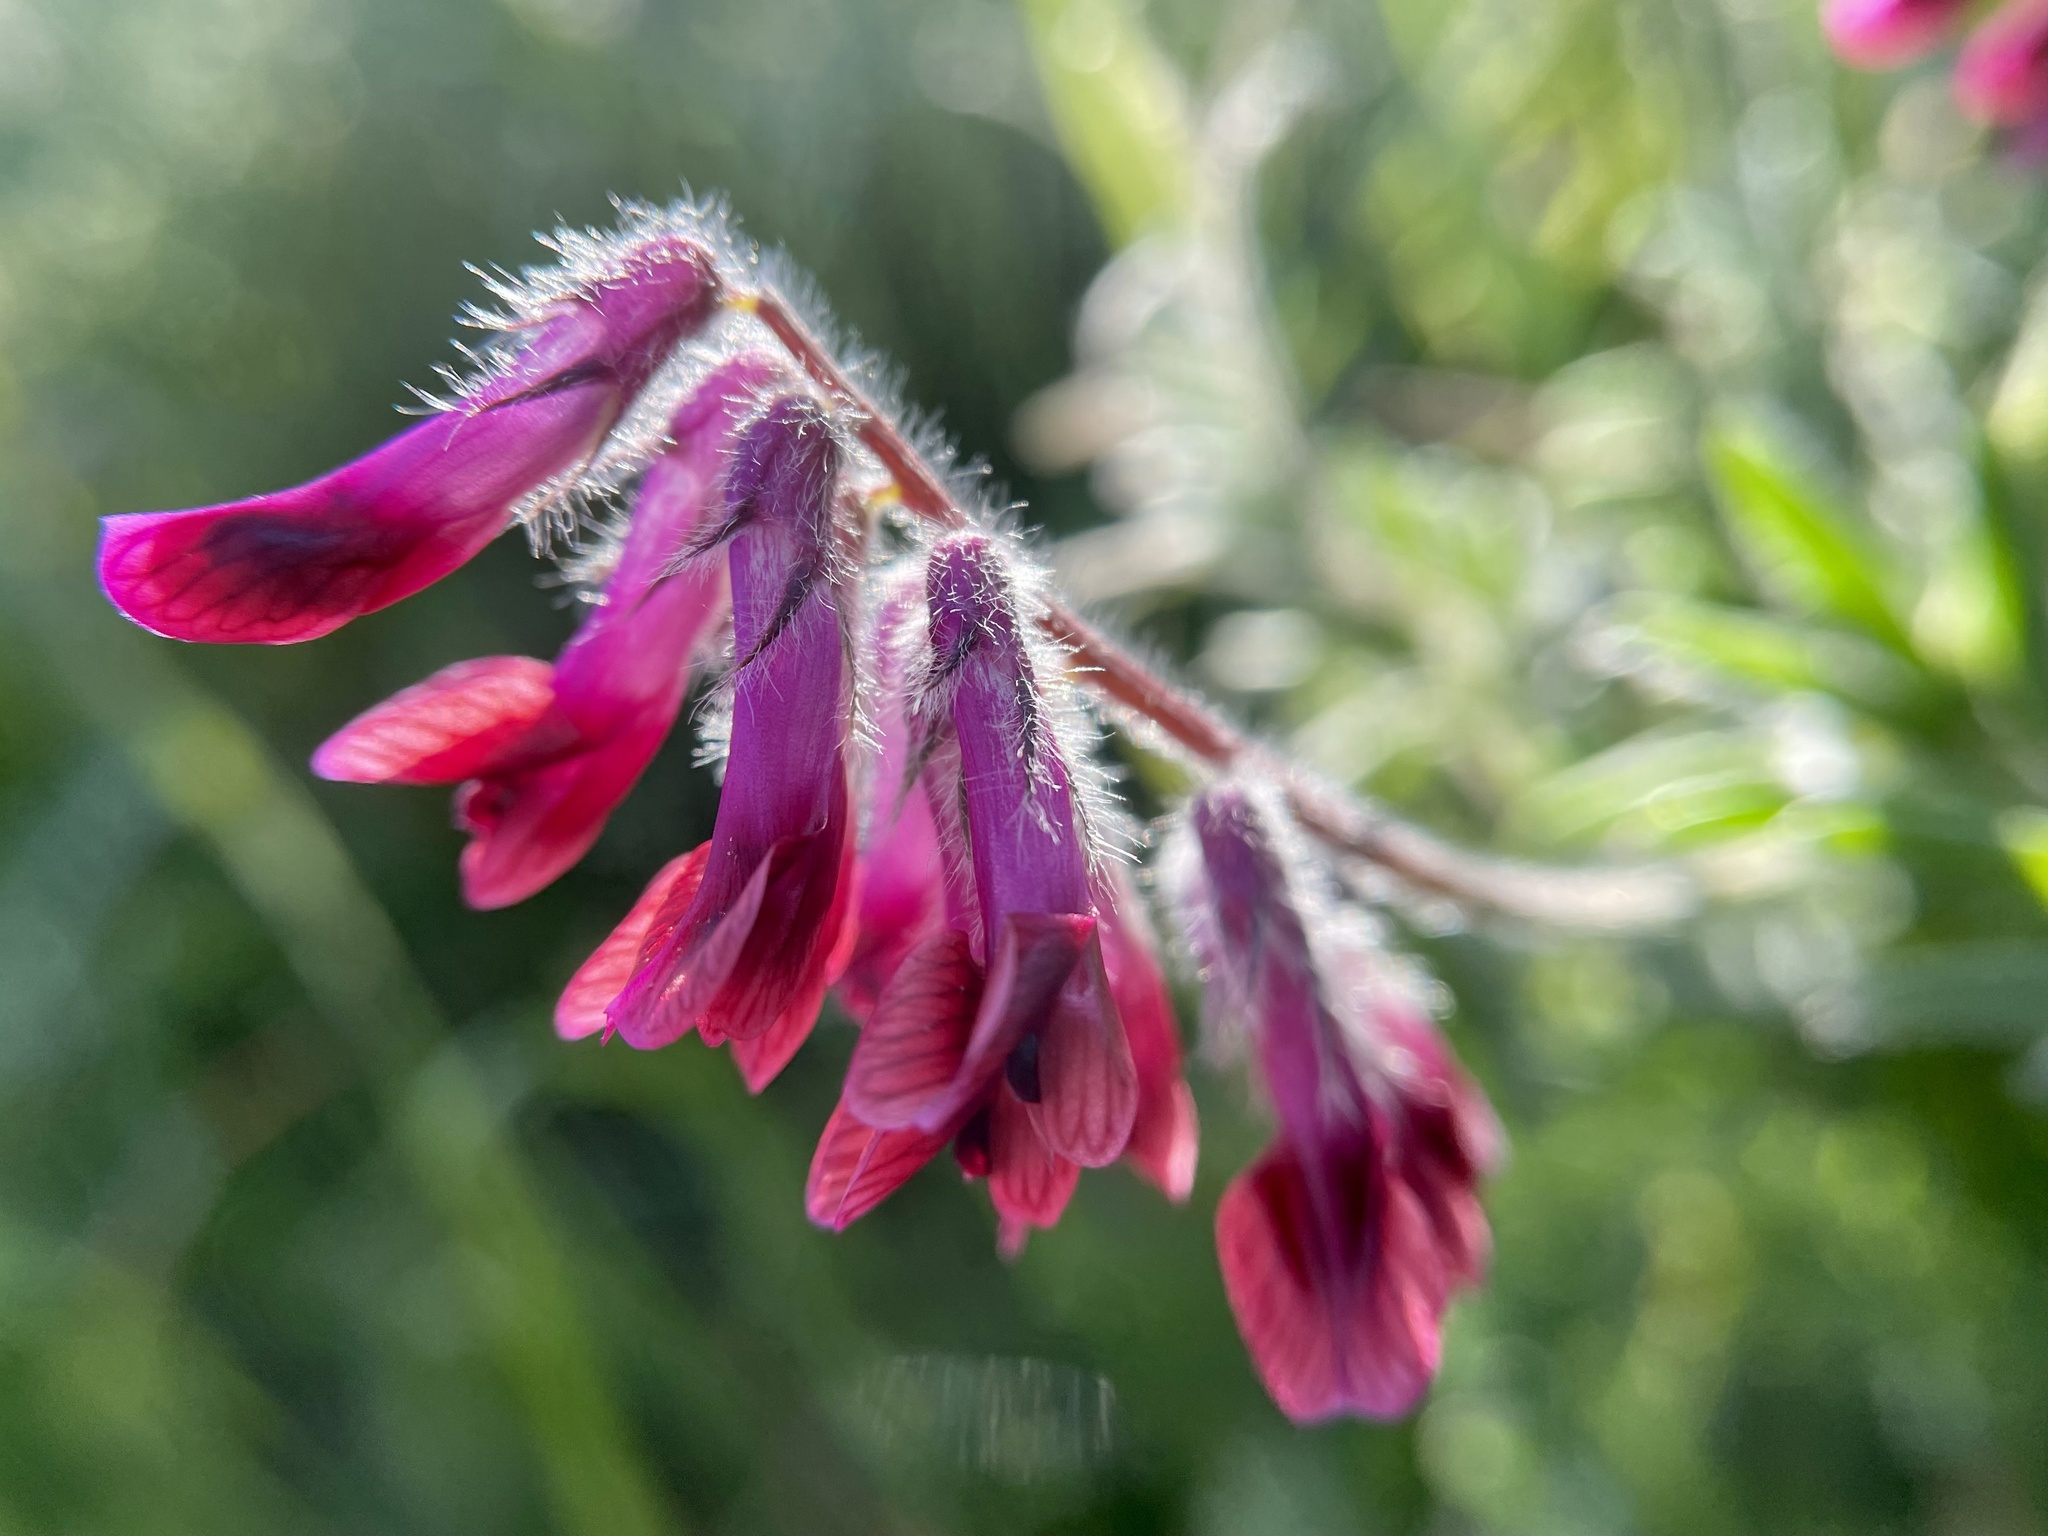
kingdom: Plantae
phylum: Tracheophyta
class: Magnoliopsida
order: Fabales
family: Fabaceae
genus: Vicia
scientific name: Vicia benghalensis
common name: Purple vetch
